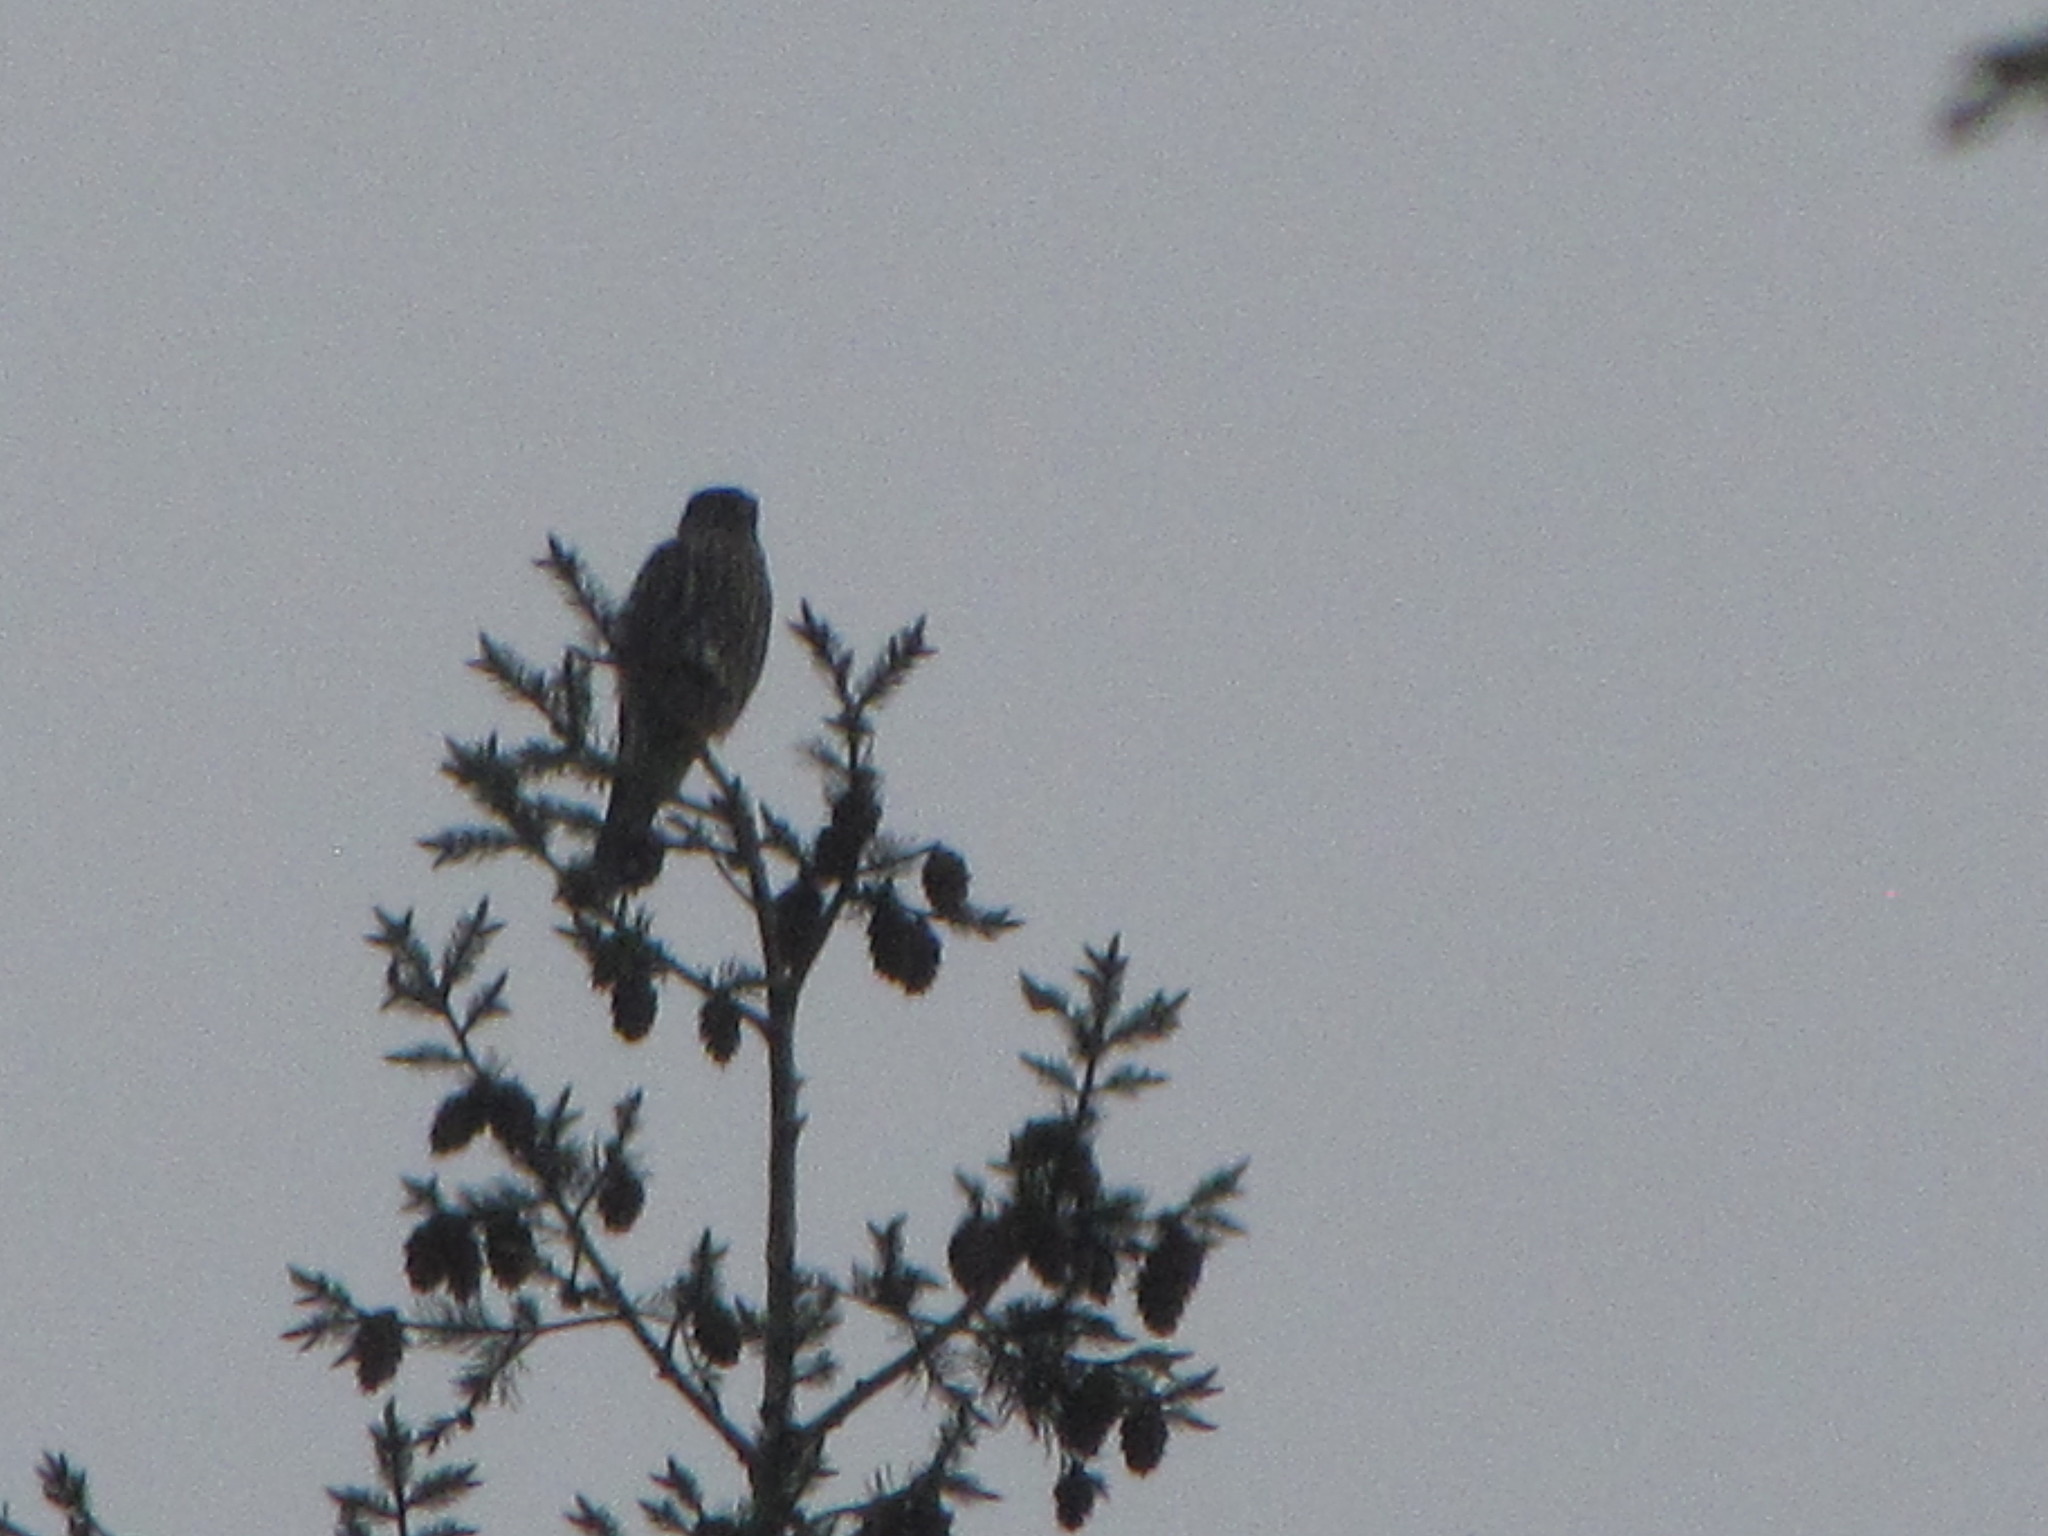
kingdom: Animalia
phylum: Chordata
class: Aves
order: Falconiformes
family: Falconidae
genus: Falco
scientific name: Falco columbarius
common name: Merlin
